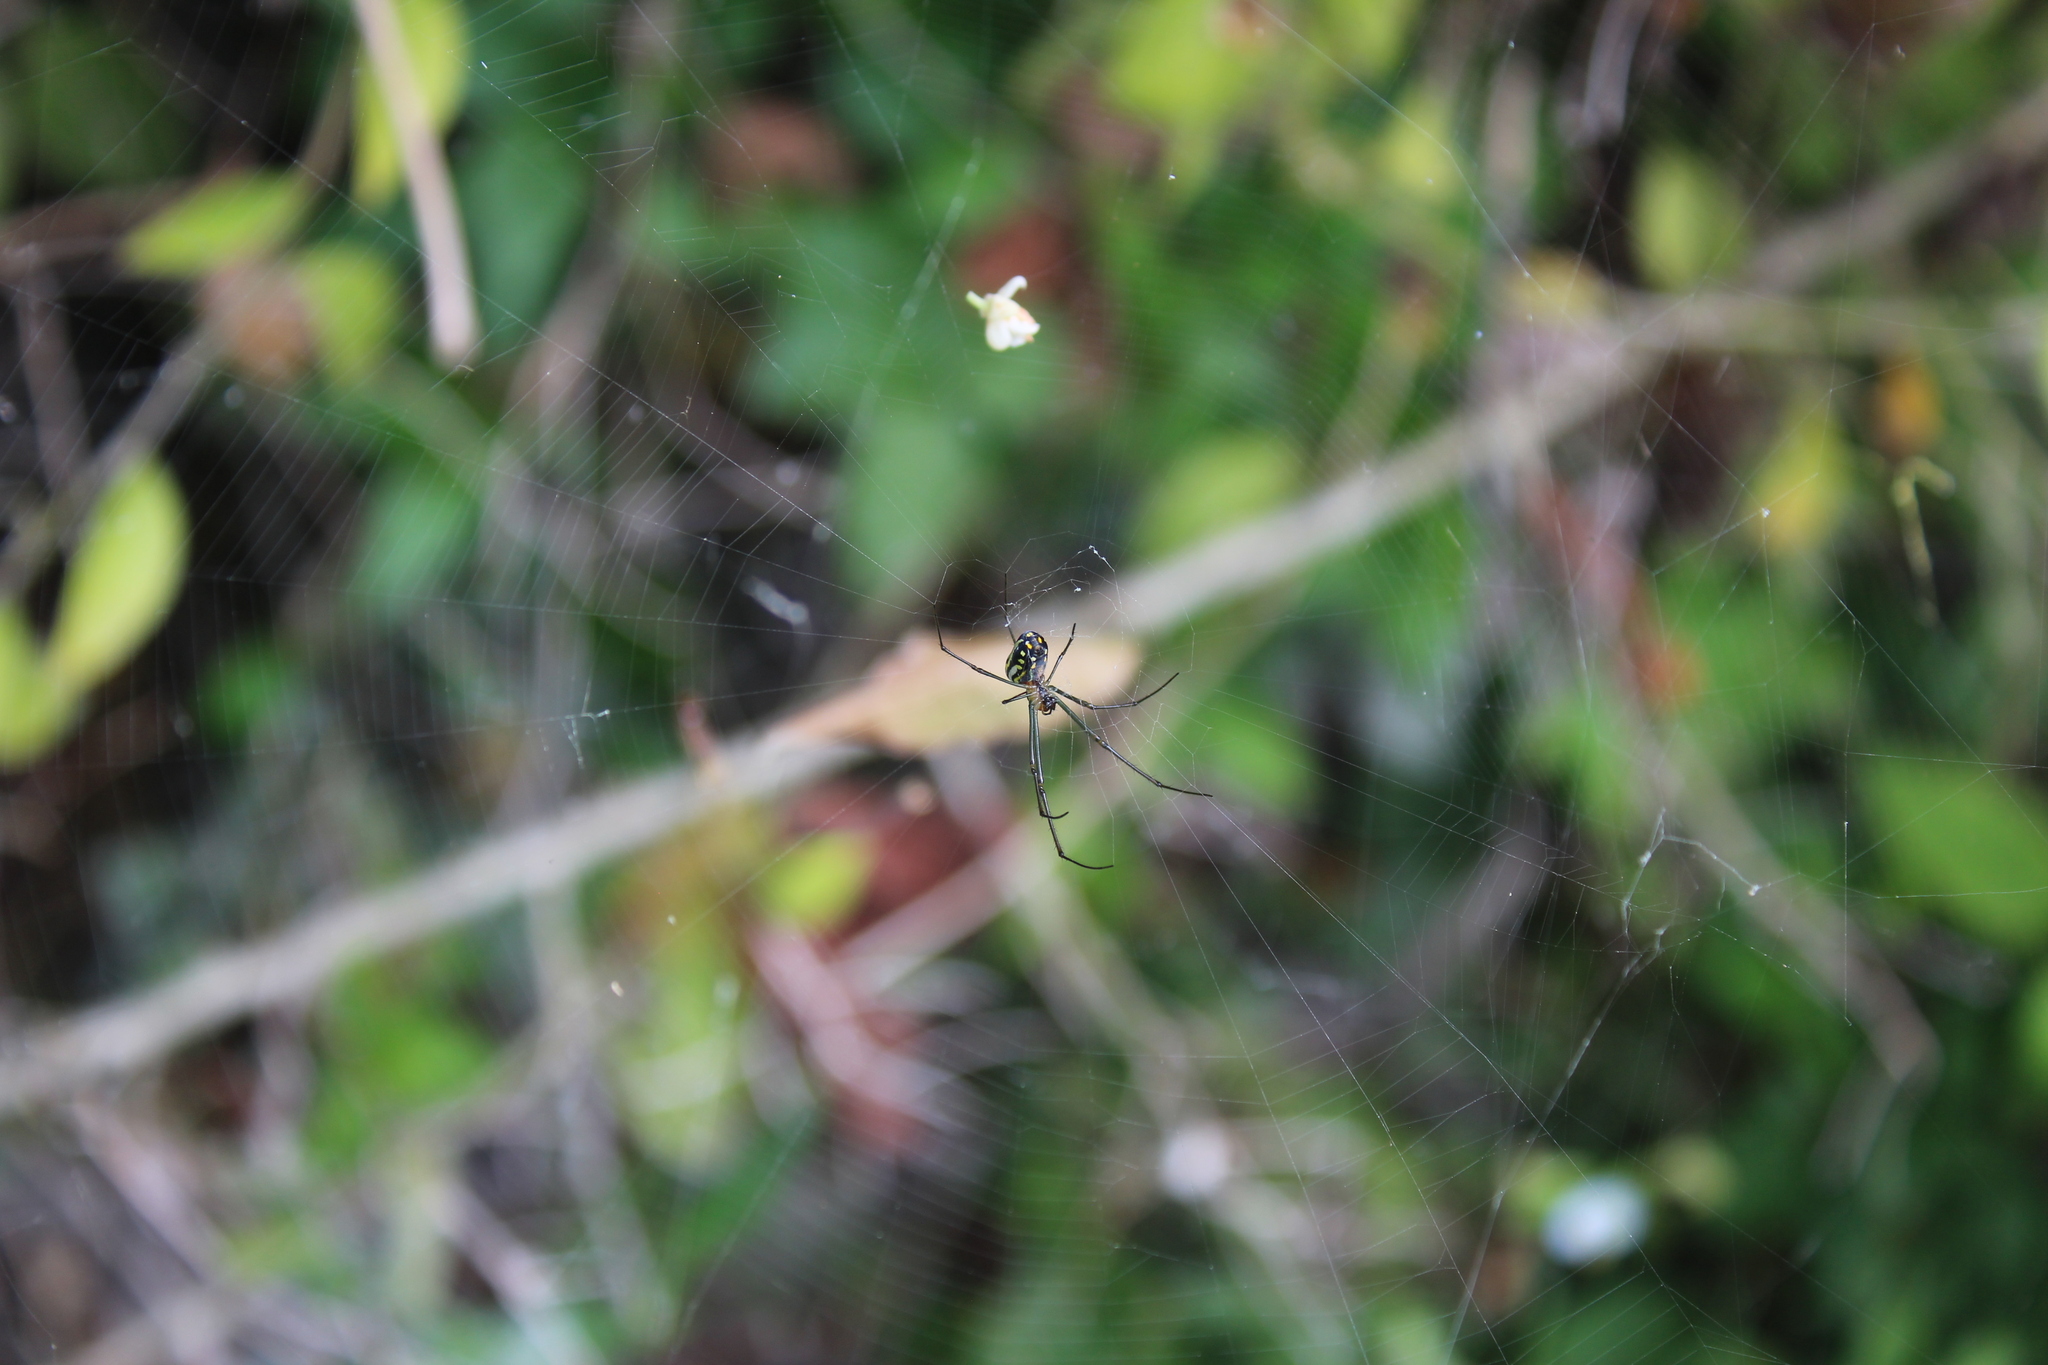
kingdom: Animalia
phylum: Arthropoda
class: Arachnida
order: Araneae
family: Tetragnathidae
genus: Leucauge
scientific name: Leucauge argyra
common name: Longjawed orb weavers
